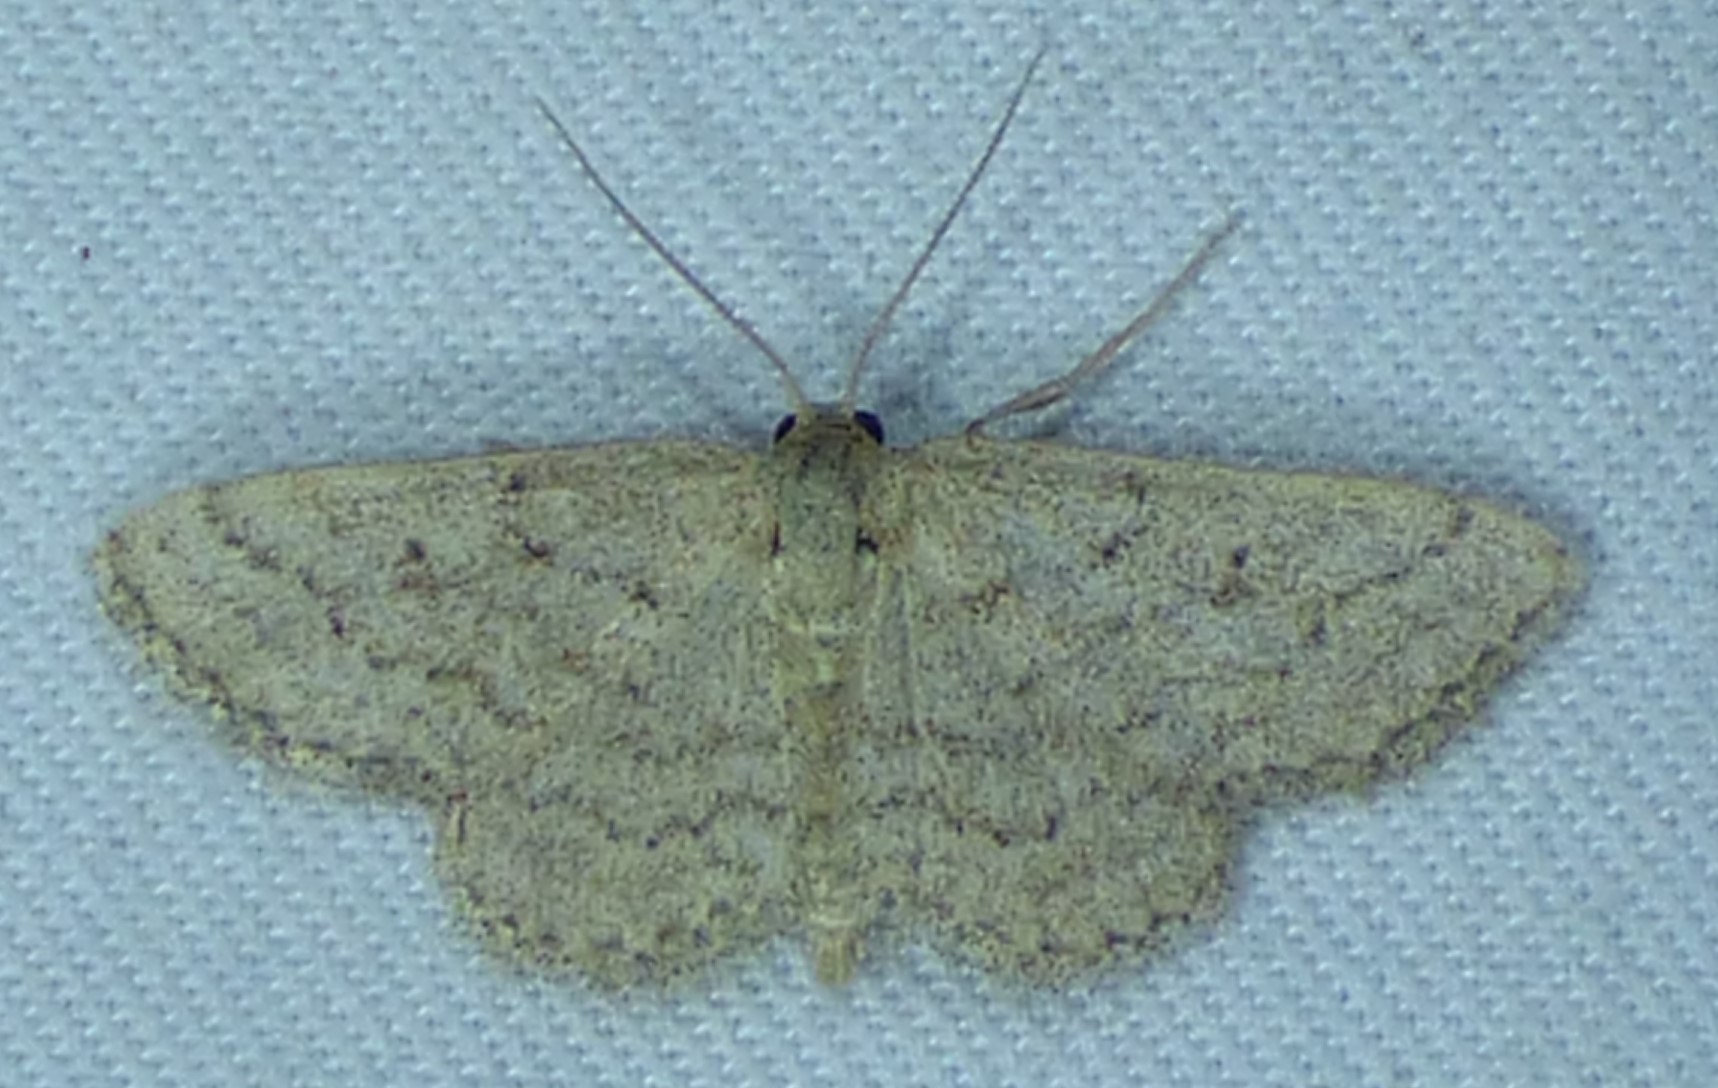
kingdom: Animalia
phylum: Arthropoda
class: Insecta
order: Lepidoptera
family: Geometridae
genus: Lobocleta
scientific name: Lobocleta ossularia
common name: Drab brown wave
